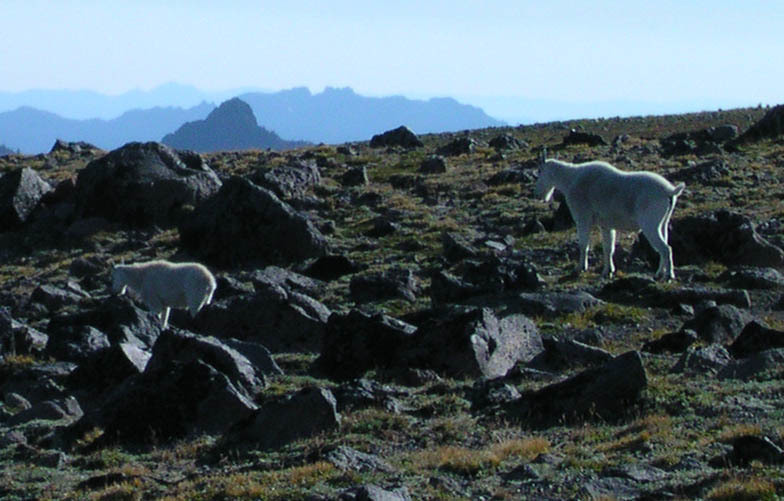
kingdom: Animalia
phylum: Chordata
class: Mammalia
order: Artiodactyla
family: Bovidae
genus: Oreamnos
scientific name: Oreamnos americanus
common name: Mountain goat
